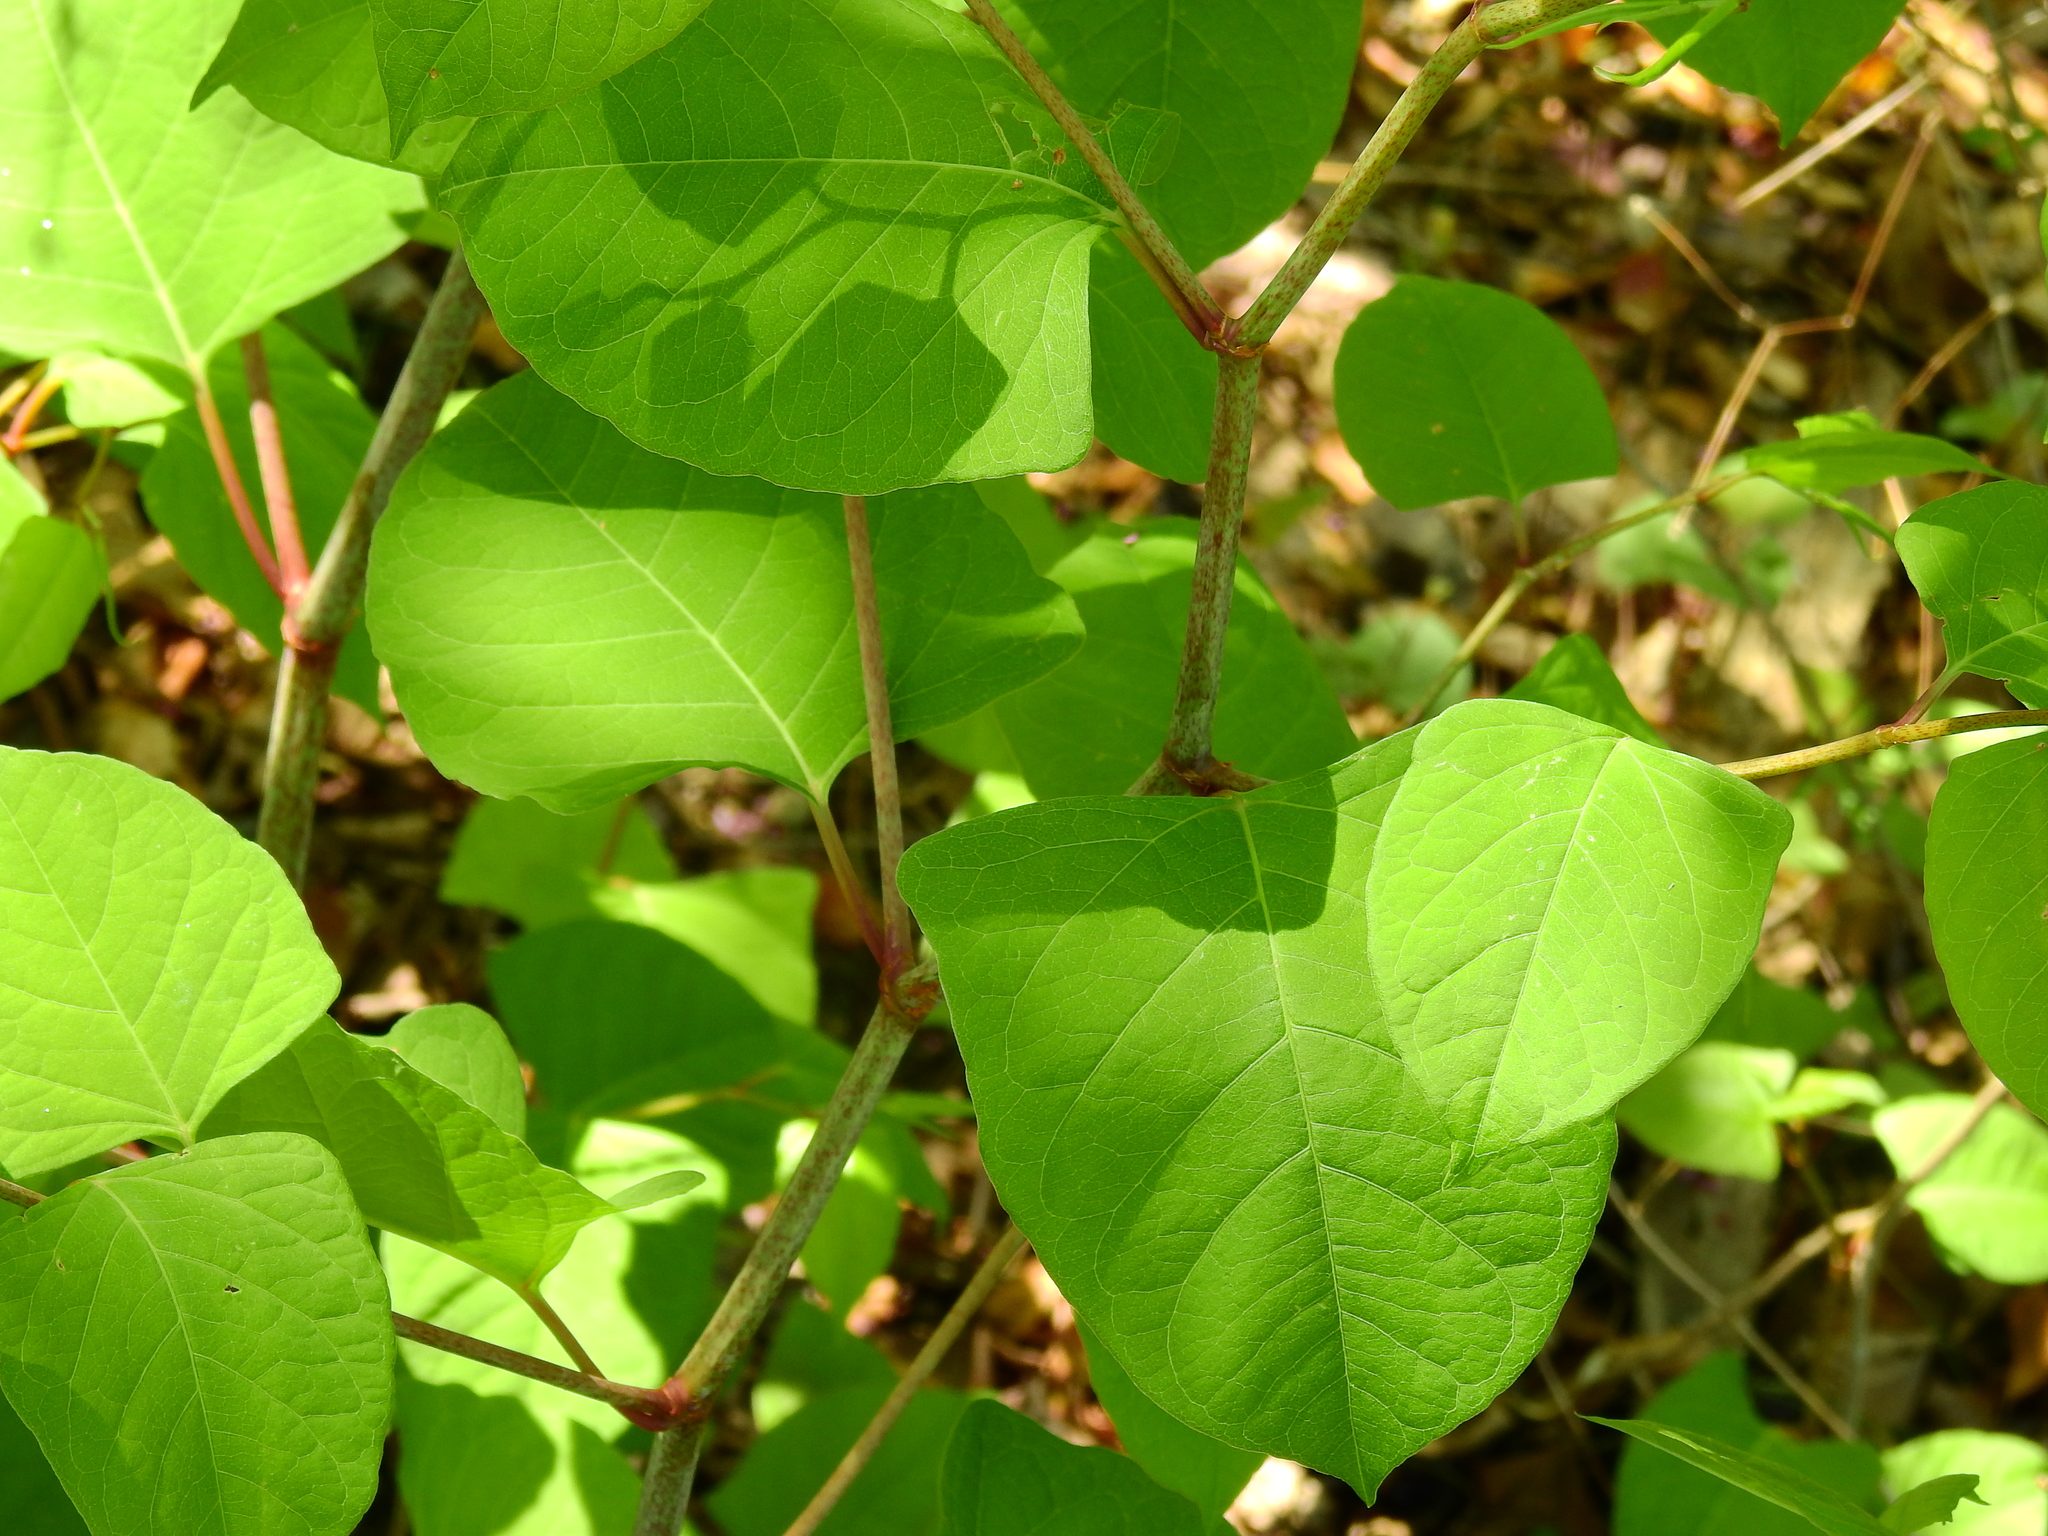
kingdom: Plantae
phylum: Tracheophyta
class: Magnoliopsida
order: Caryophyllales
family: Polygonaceae
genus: Reynoutria
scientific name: Reynoutria japonica
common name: Japanese knotweed
